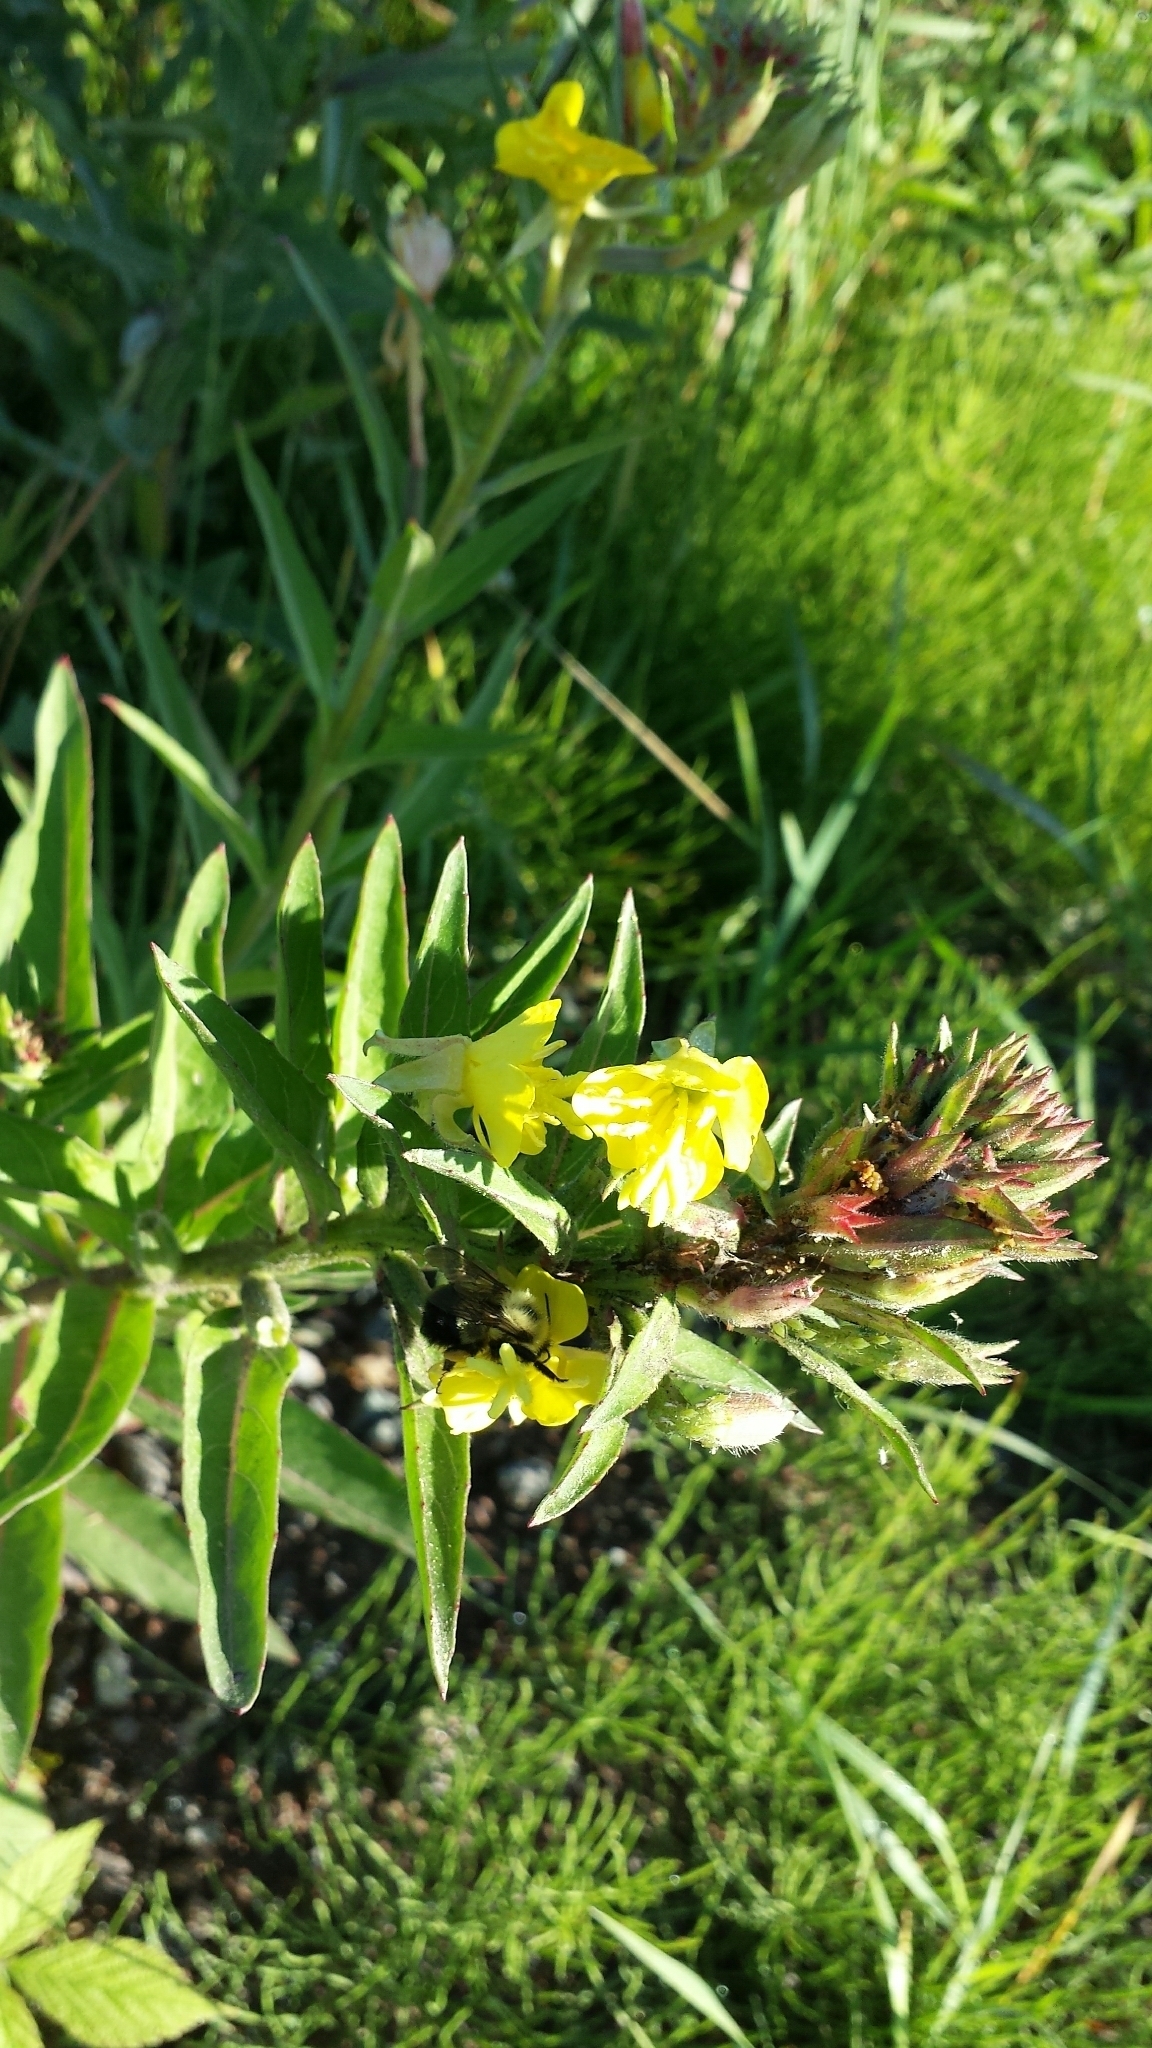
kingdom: Animalia
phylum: Arthropoda
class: Insecta
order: Hymenoptera
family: Apidae
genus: Pyrobombus
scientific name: Pyrobombus
